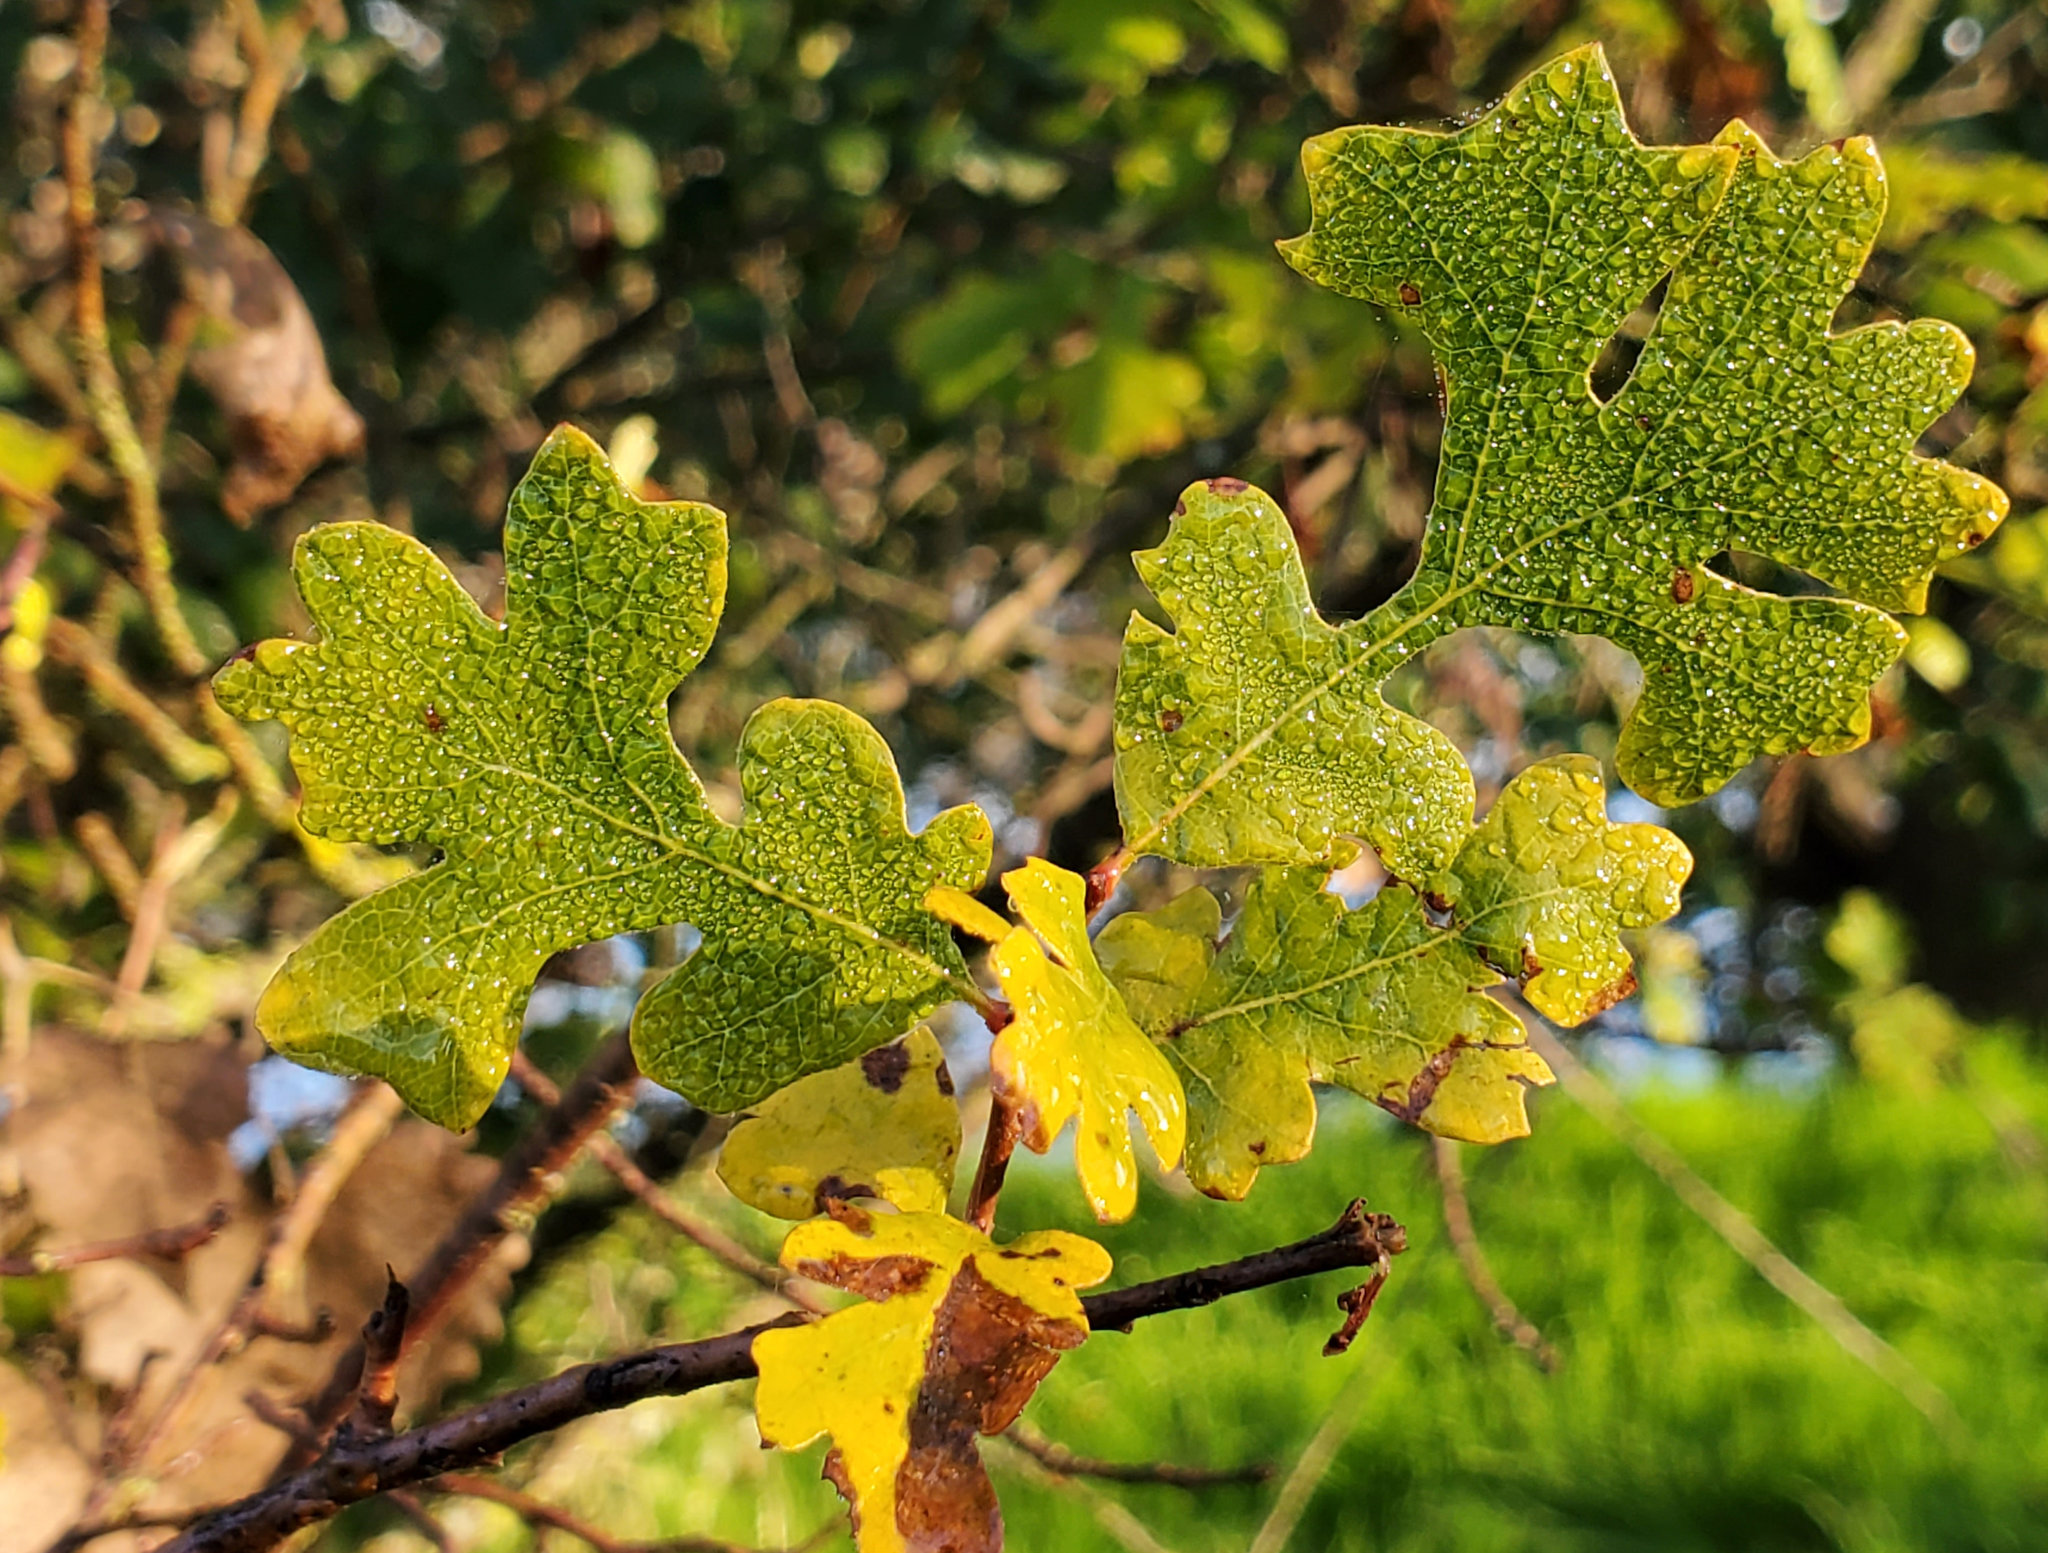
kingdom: Plantae
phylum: Tracheophyta
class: Magnoliopsida
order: Fagales
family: Fagaceae
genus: Quercus
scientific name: Quercus lobata
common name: Valley oak
